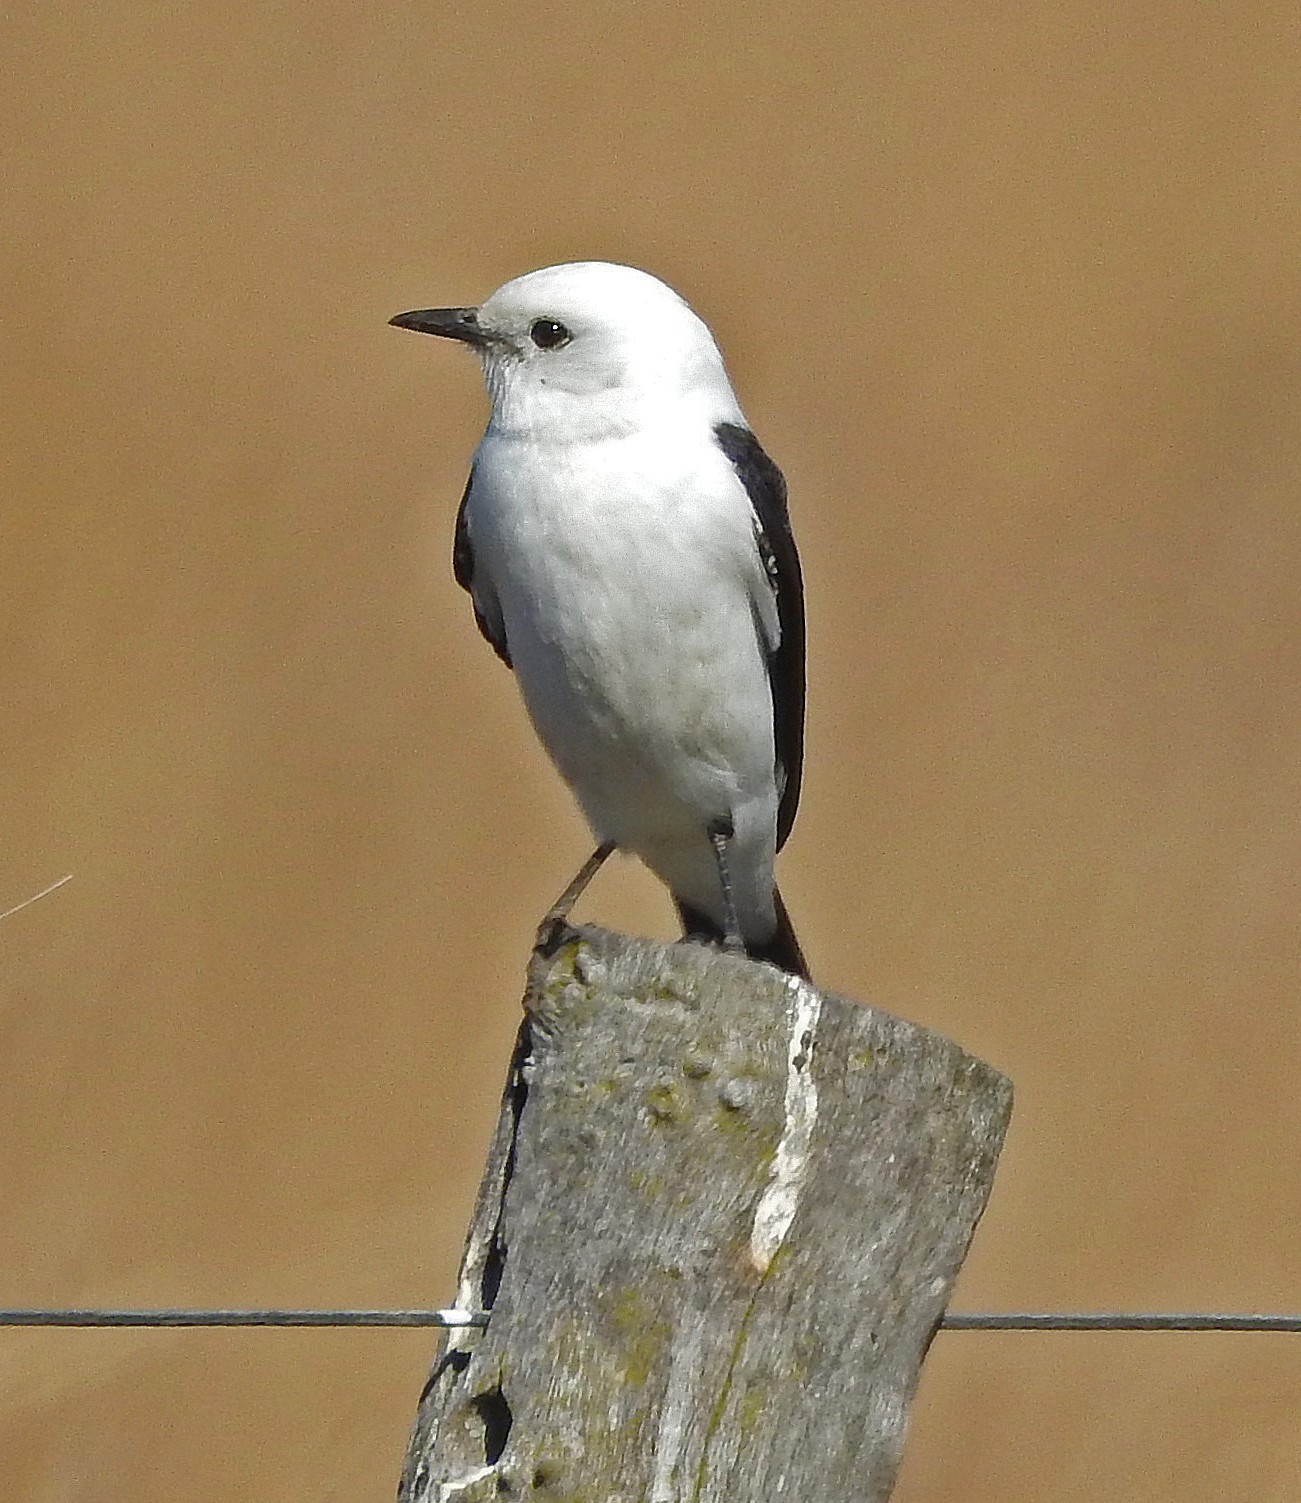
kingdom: Animalia
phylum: Chordata
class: Aves
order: Passeriformes
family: Tyrannidae
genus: Heteroxolmis
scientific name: Heteroxolmis dominicana
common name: Black-and-white monjita
